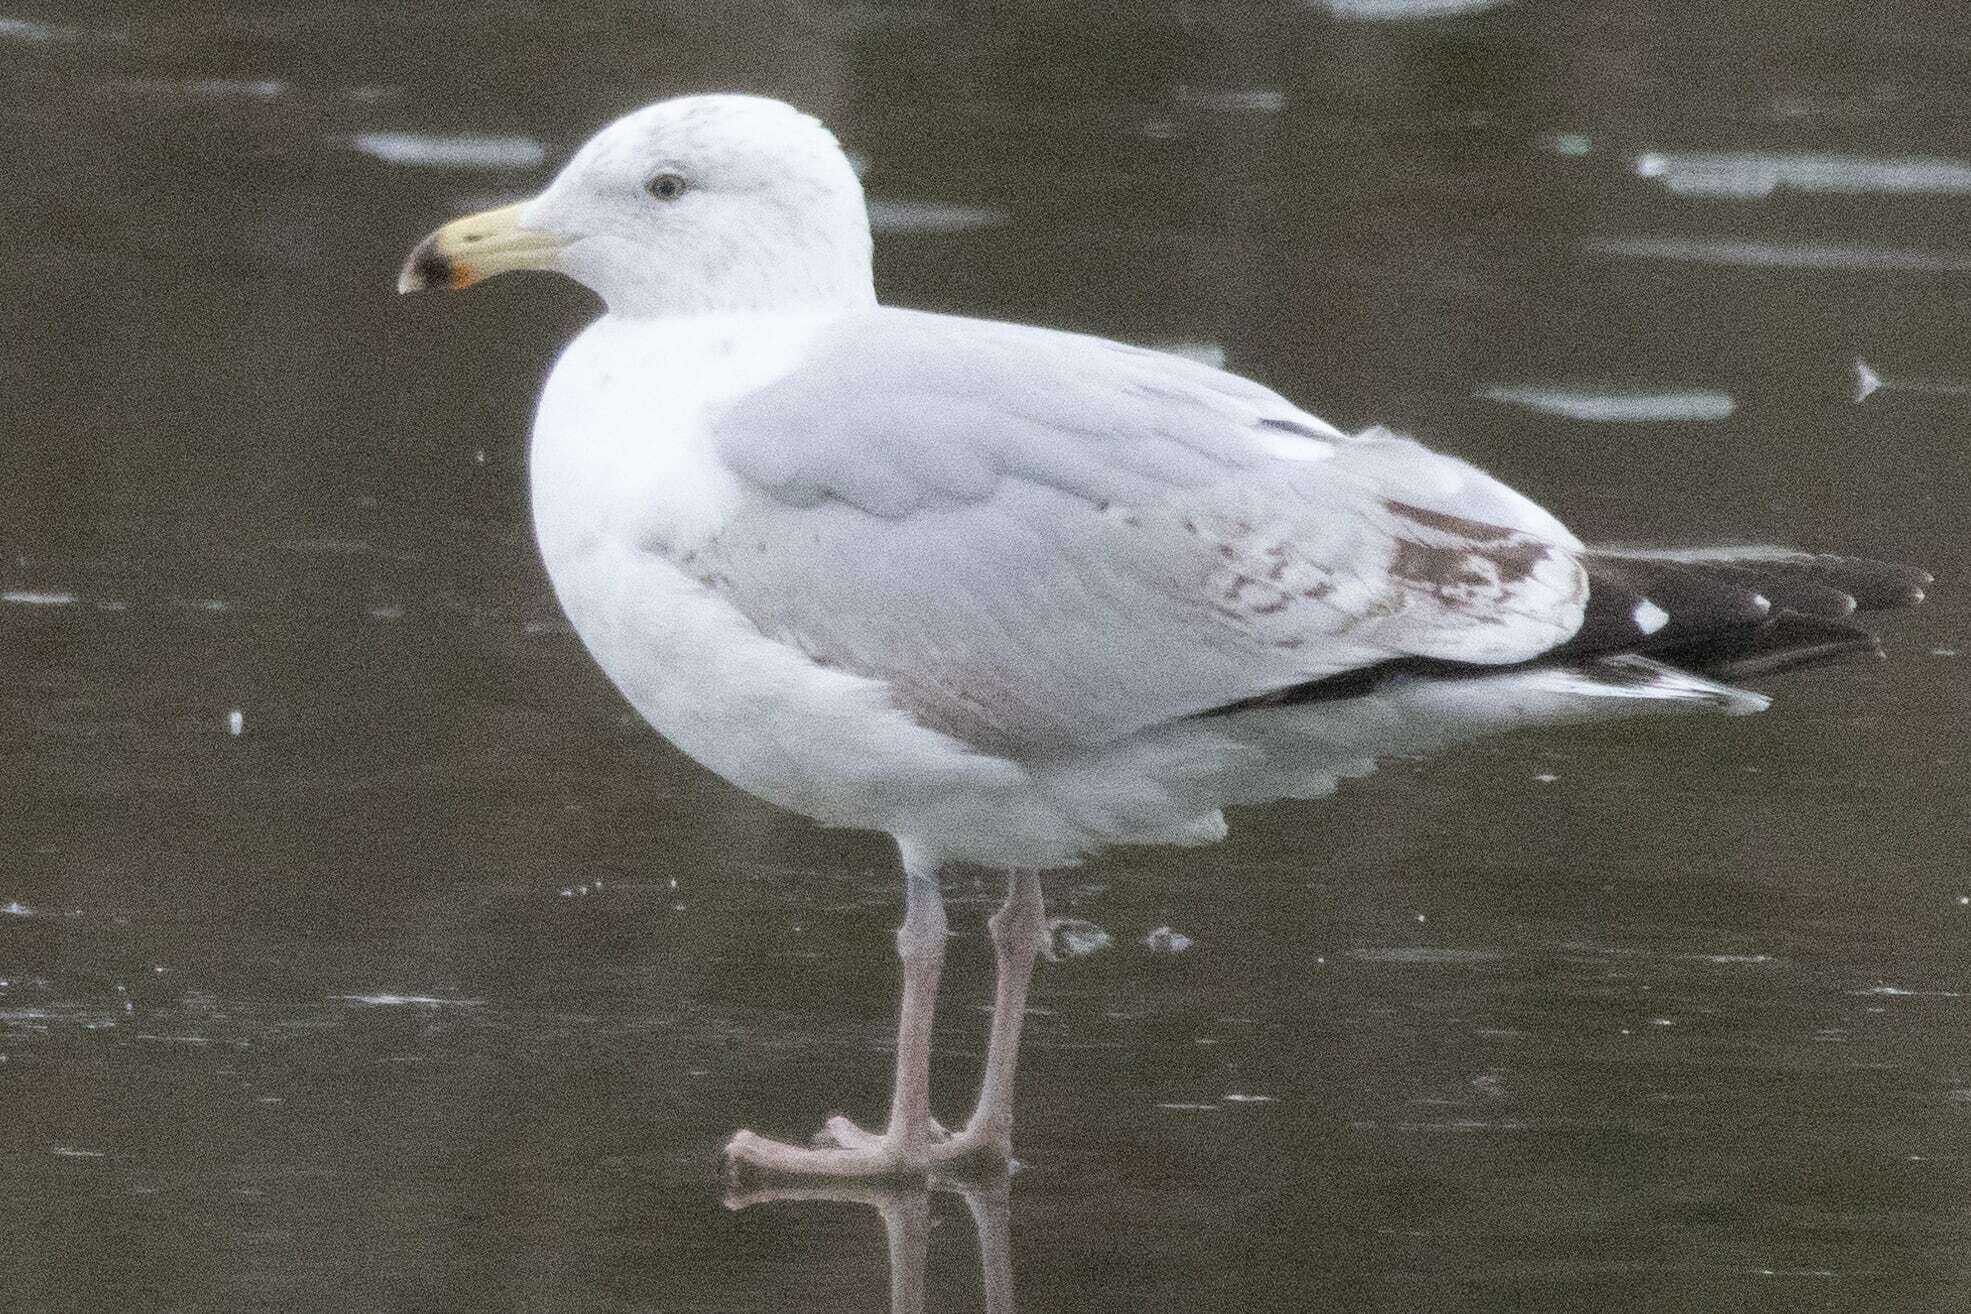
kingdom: Animalia
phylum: Chordata
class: Aves
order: Charadriiformes
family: Laridae
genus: Larus
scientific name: Larus argentatus
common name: Herring gull
